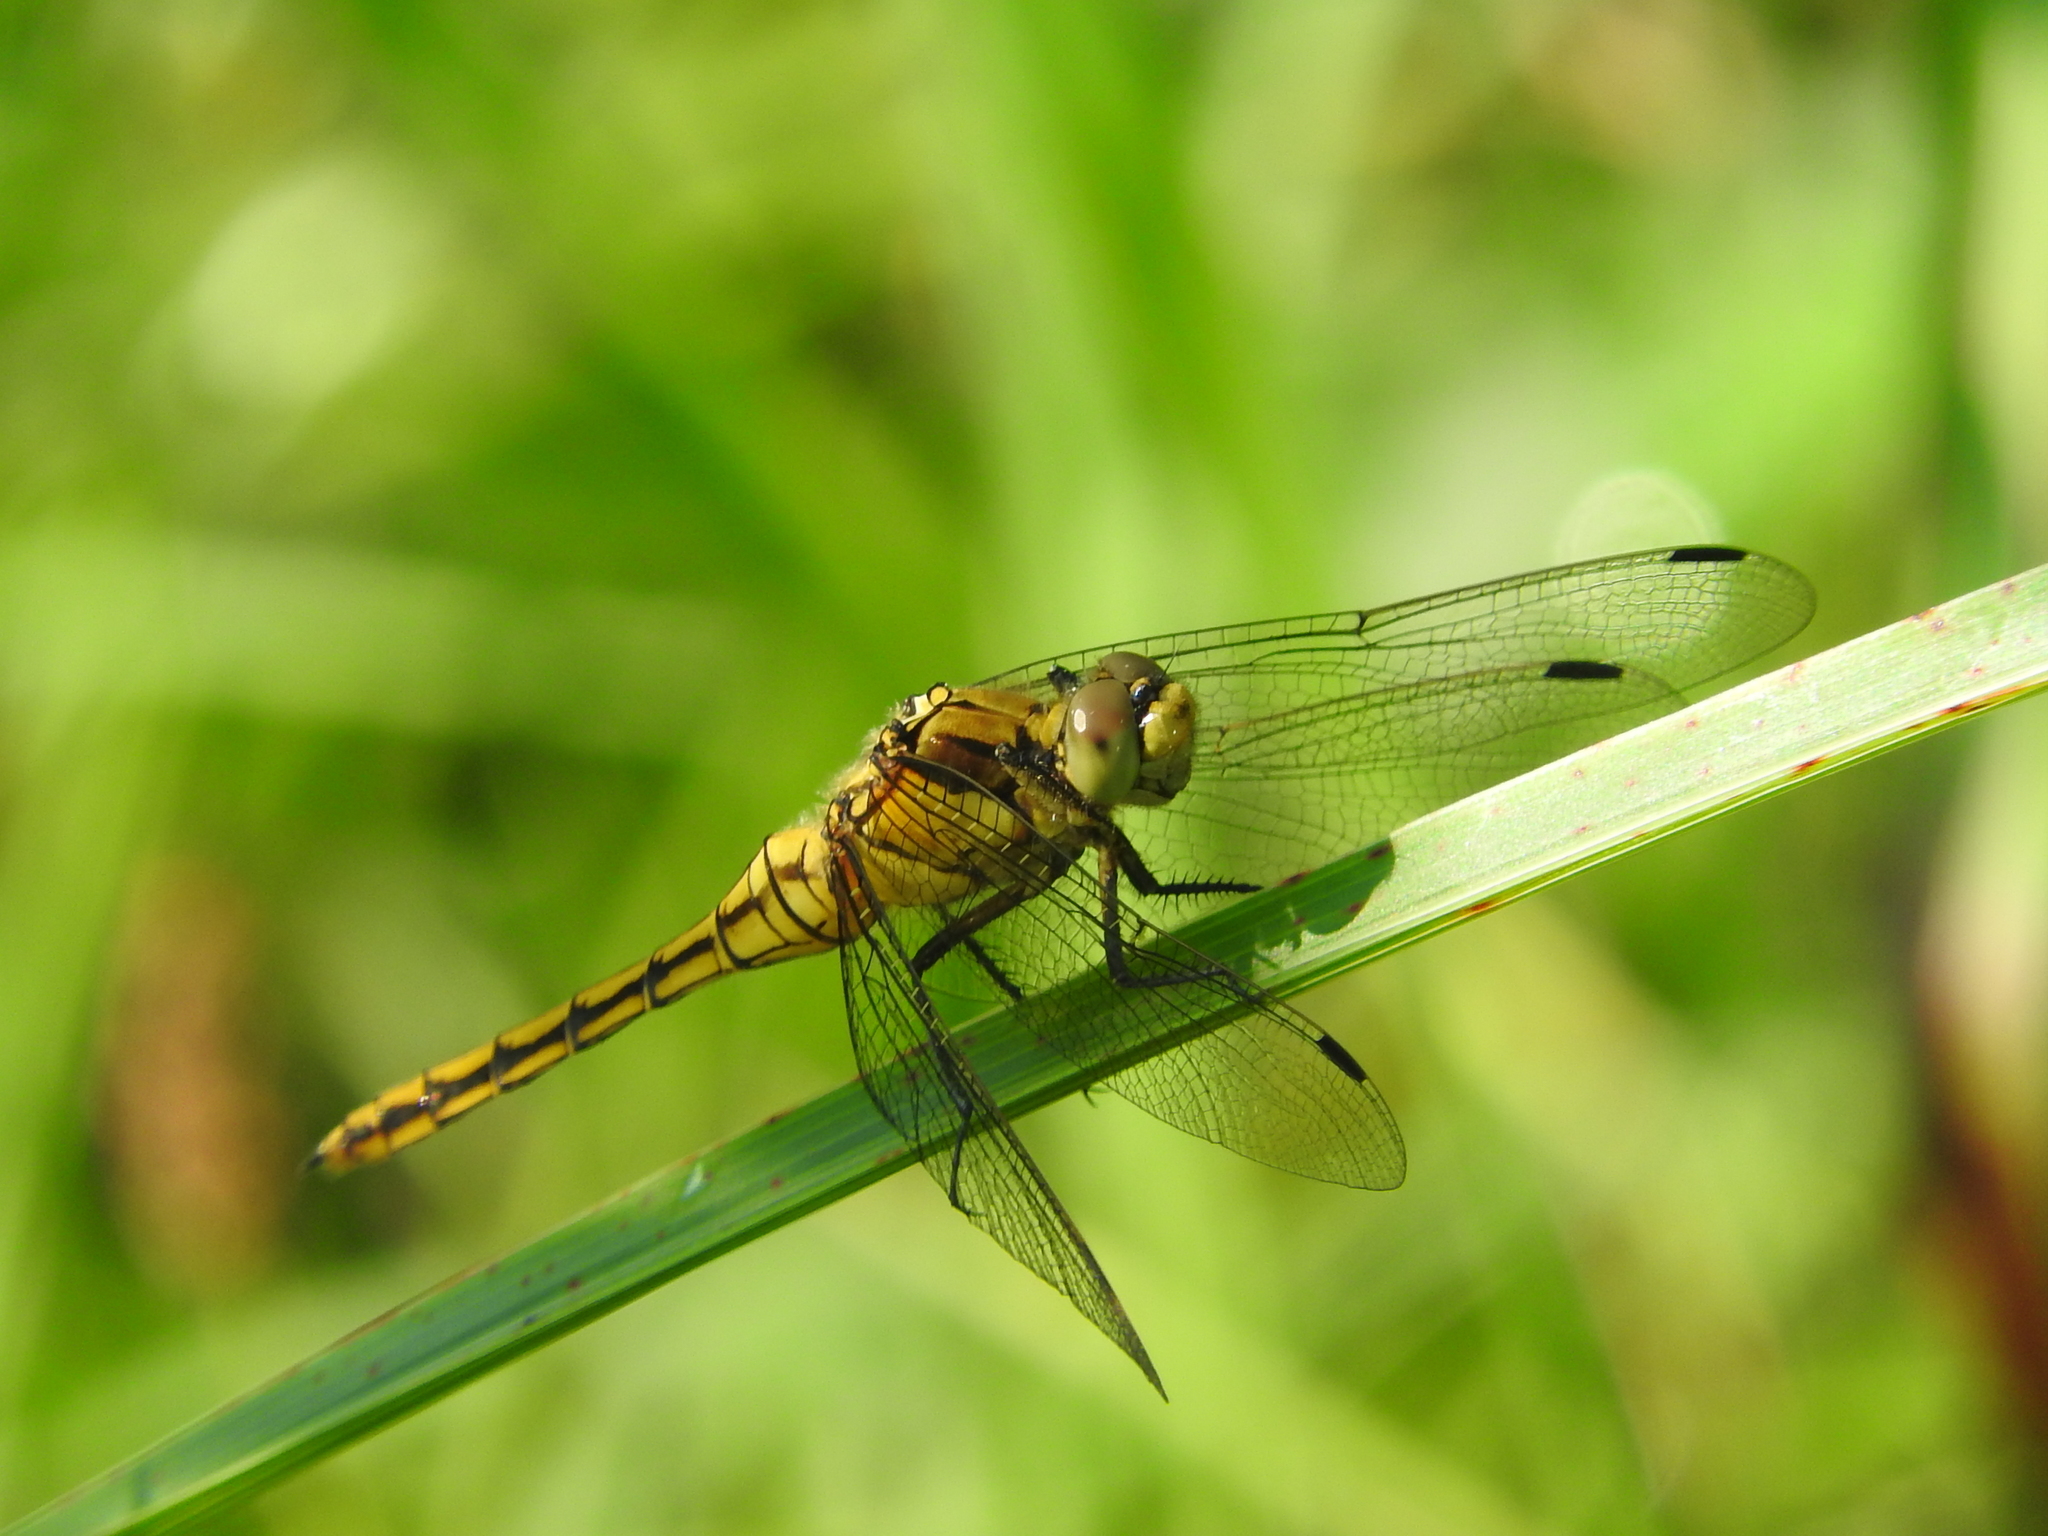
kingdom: Animalia
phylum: Arthropoda
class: Insecta
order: Odonata
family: Libellulidae
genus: Orthetrum
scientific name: Orthetrum cancellatum
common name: Black-tailed skimmer
